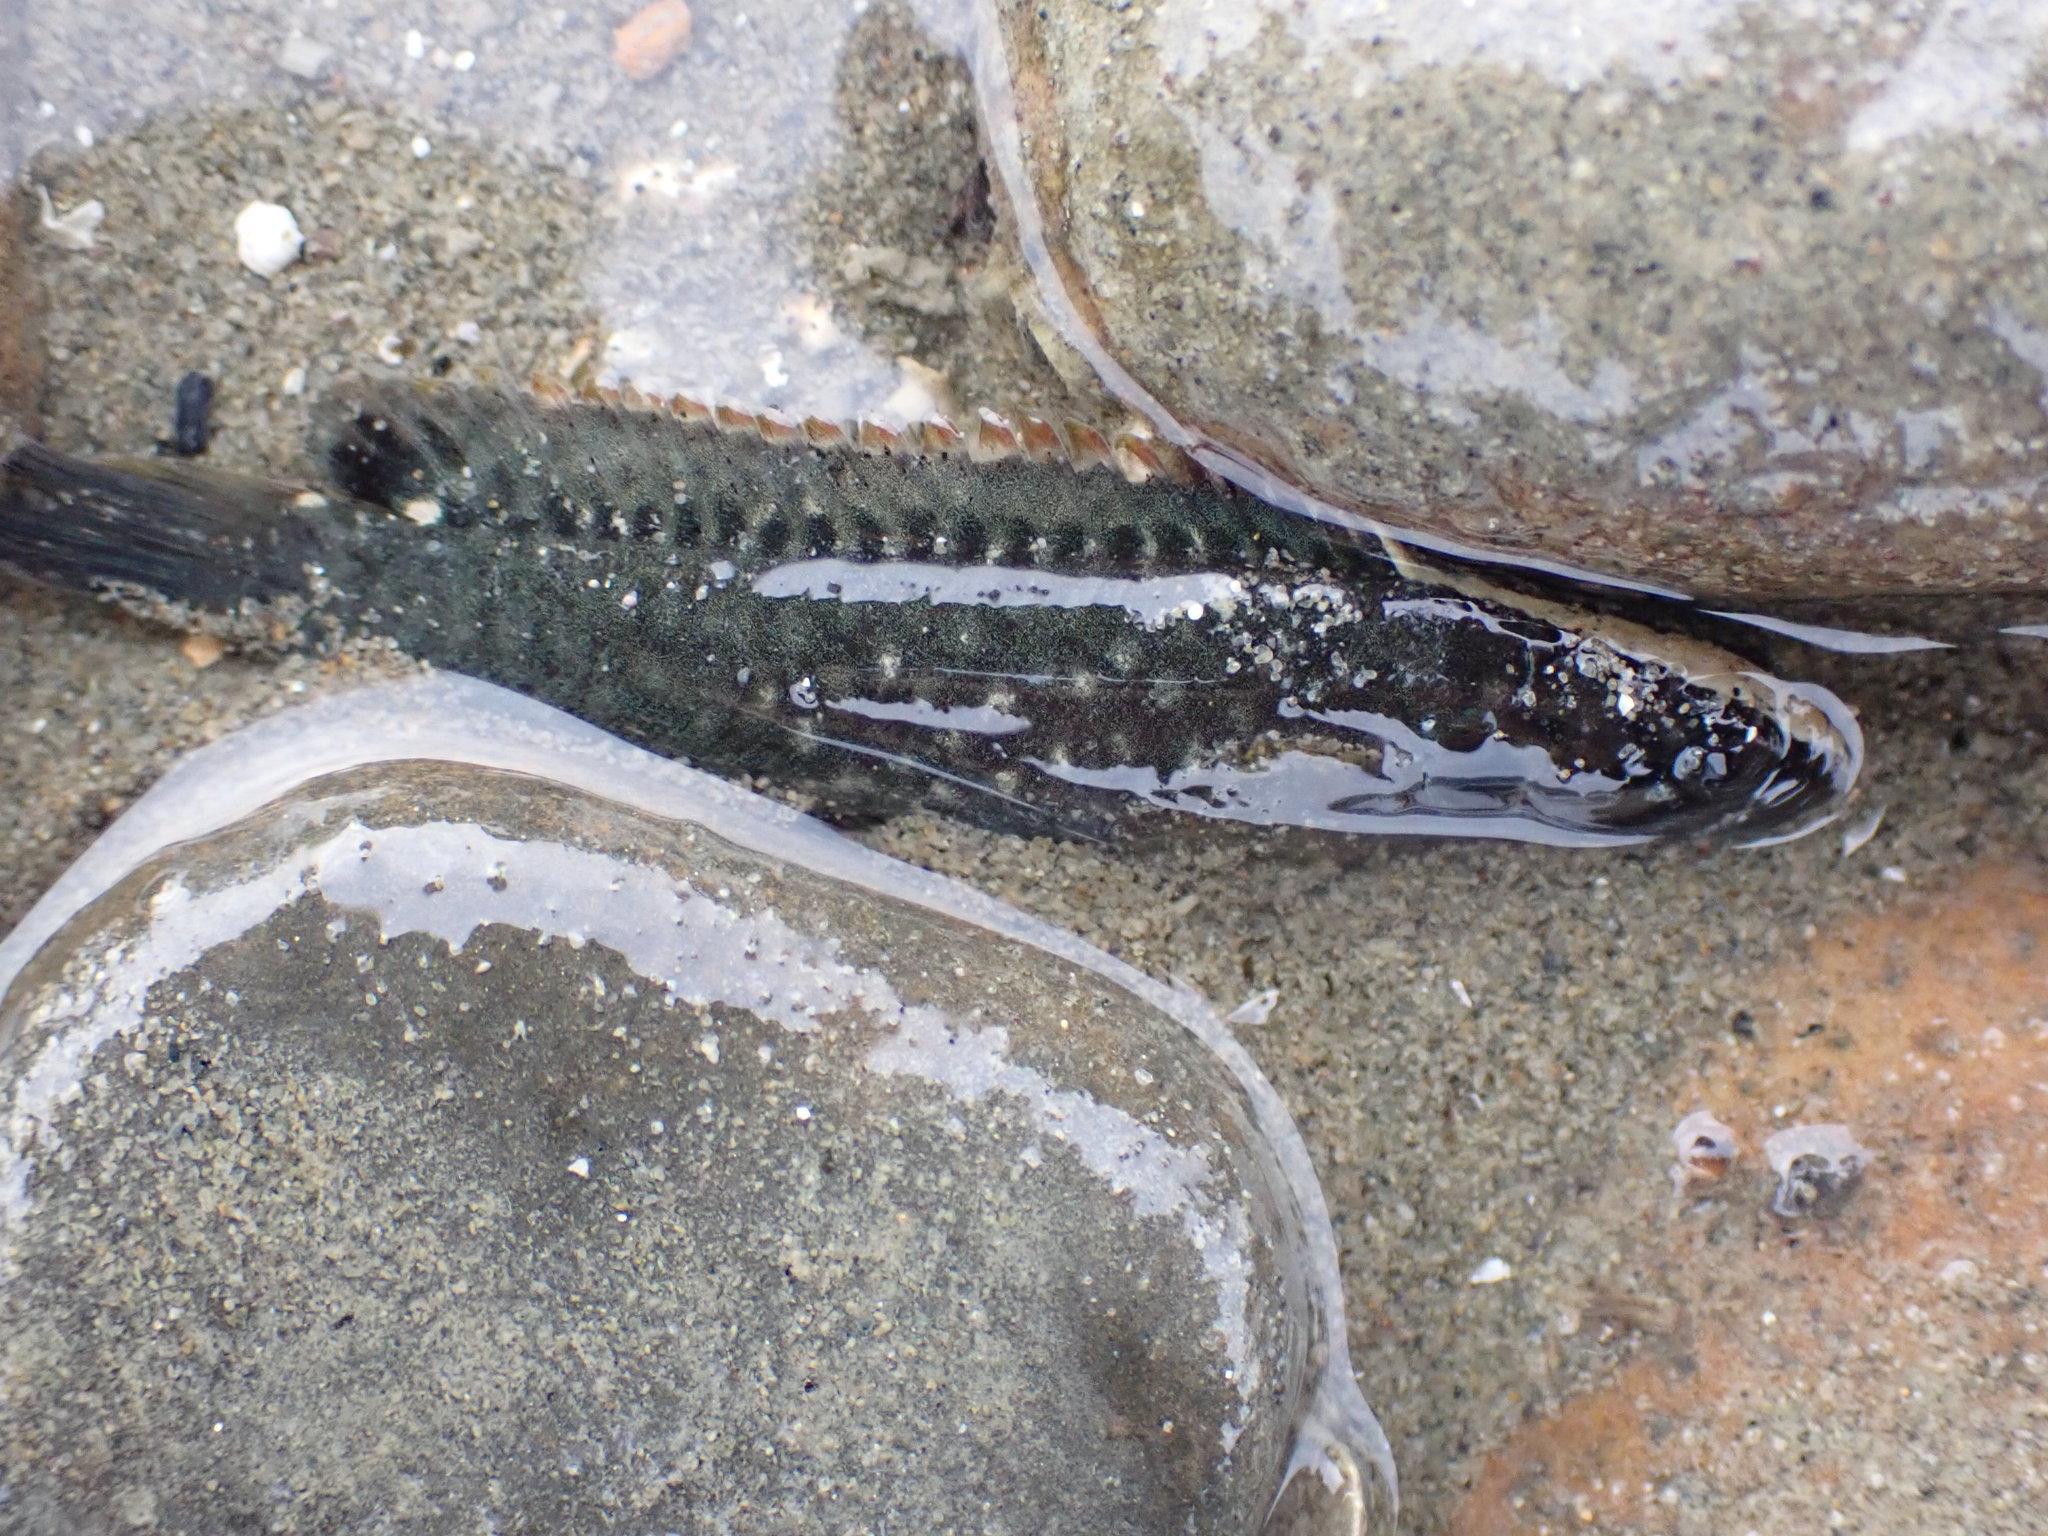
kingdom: Animalia
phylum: Chordata
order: Perciformes
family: Plesiopidae
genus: Acanthoclinus
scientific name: Acanthoclinus fuscus
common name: Olive rockfish
